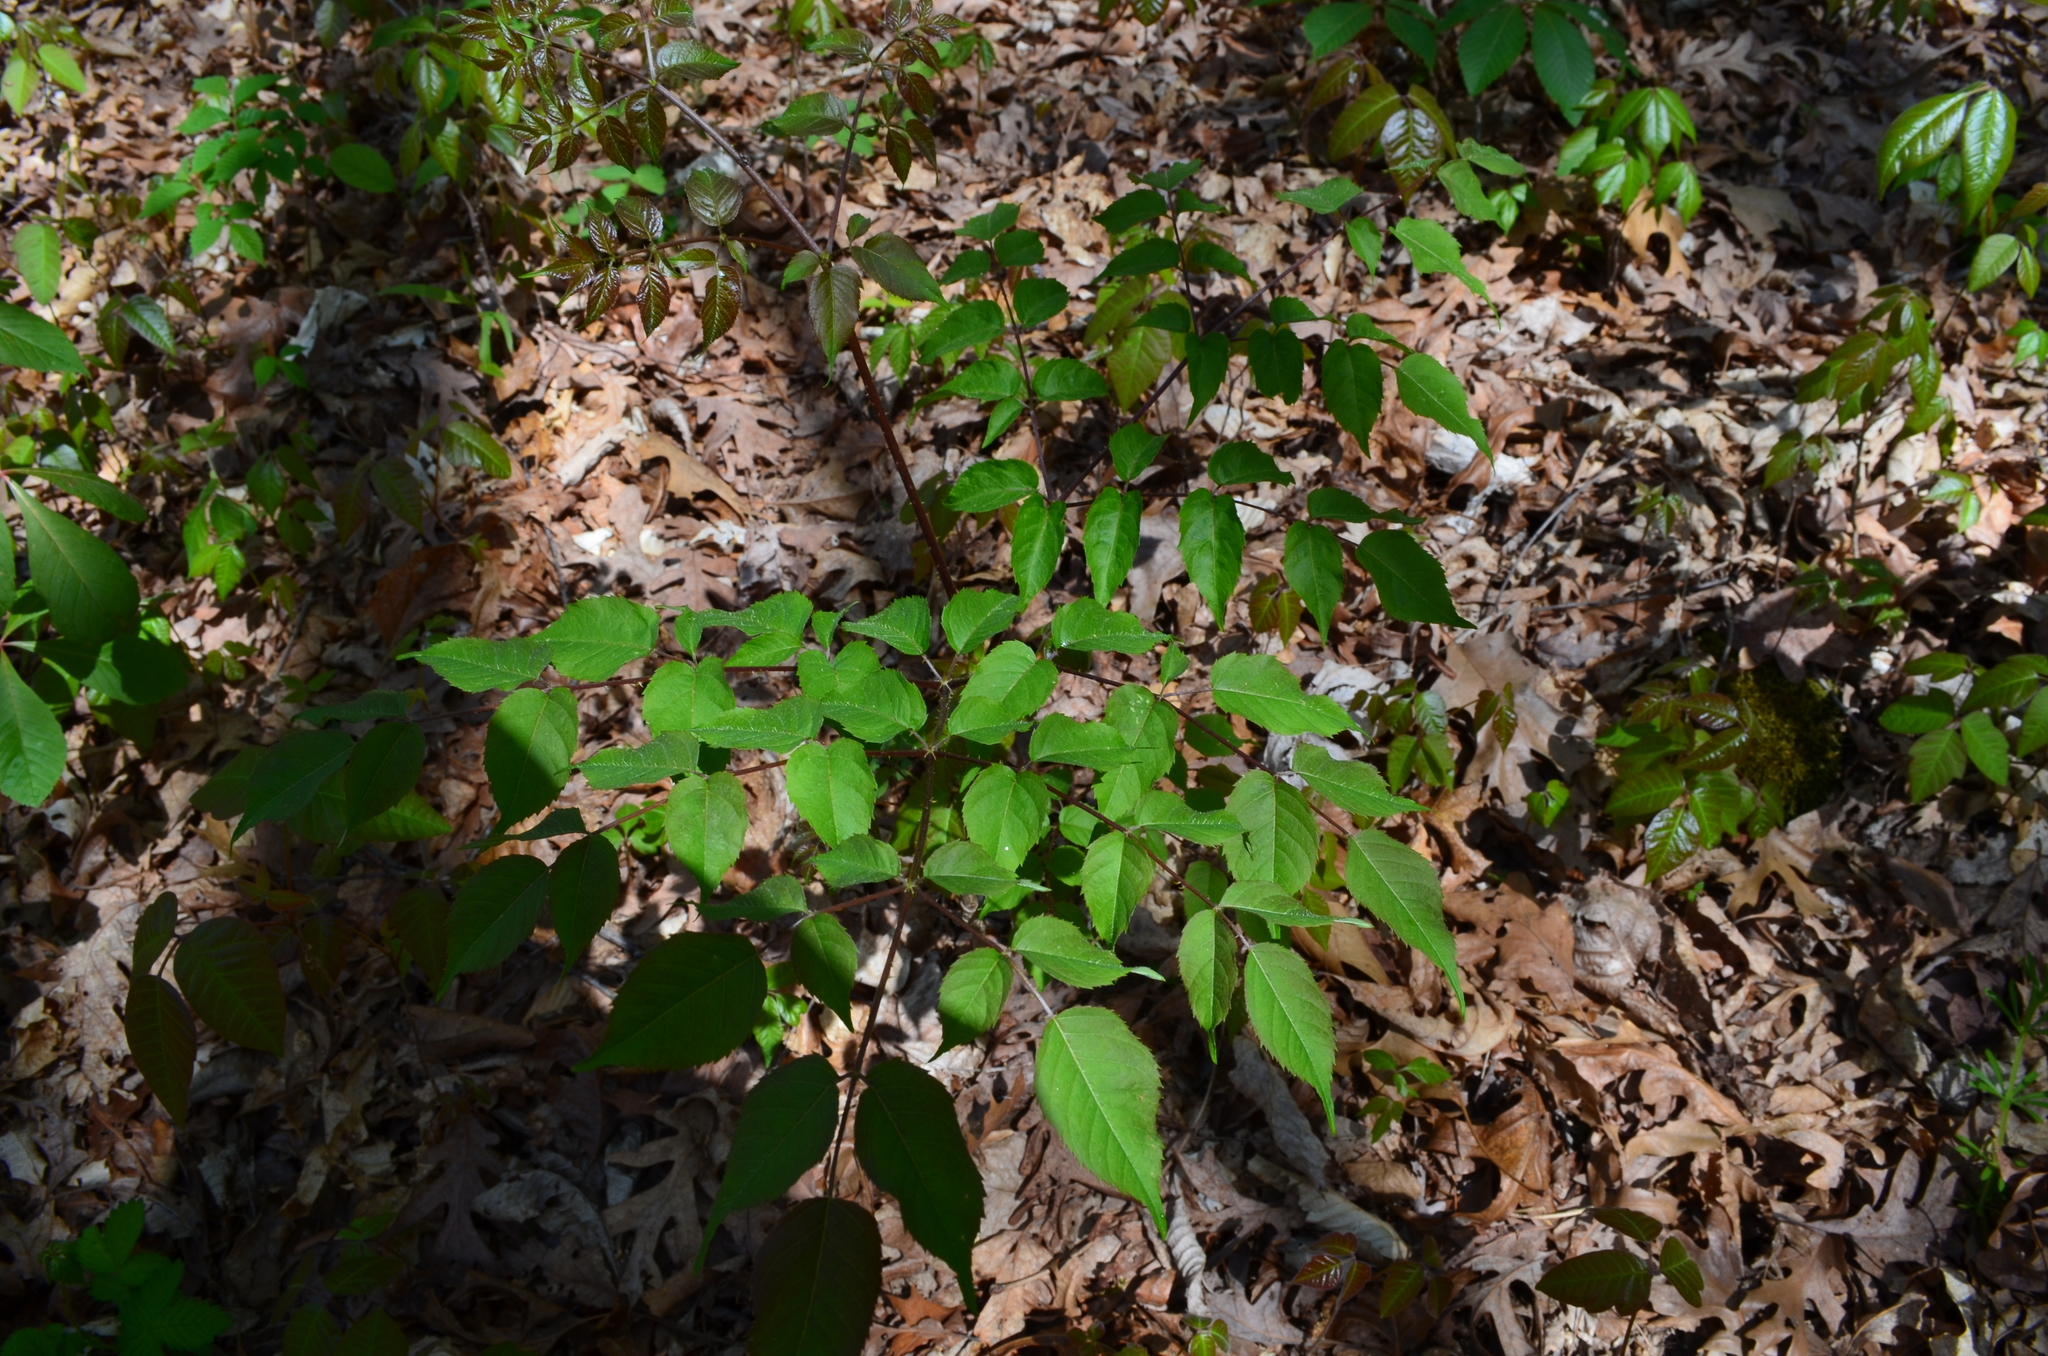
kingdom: Plantae
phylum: Tracheophyta
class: Magnoliopsida
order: Apiales
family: Araliaceae
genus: Aralia
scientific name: Aralia spinosa
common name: Hercules'-club
